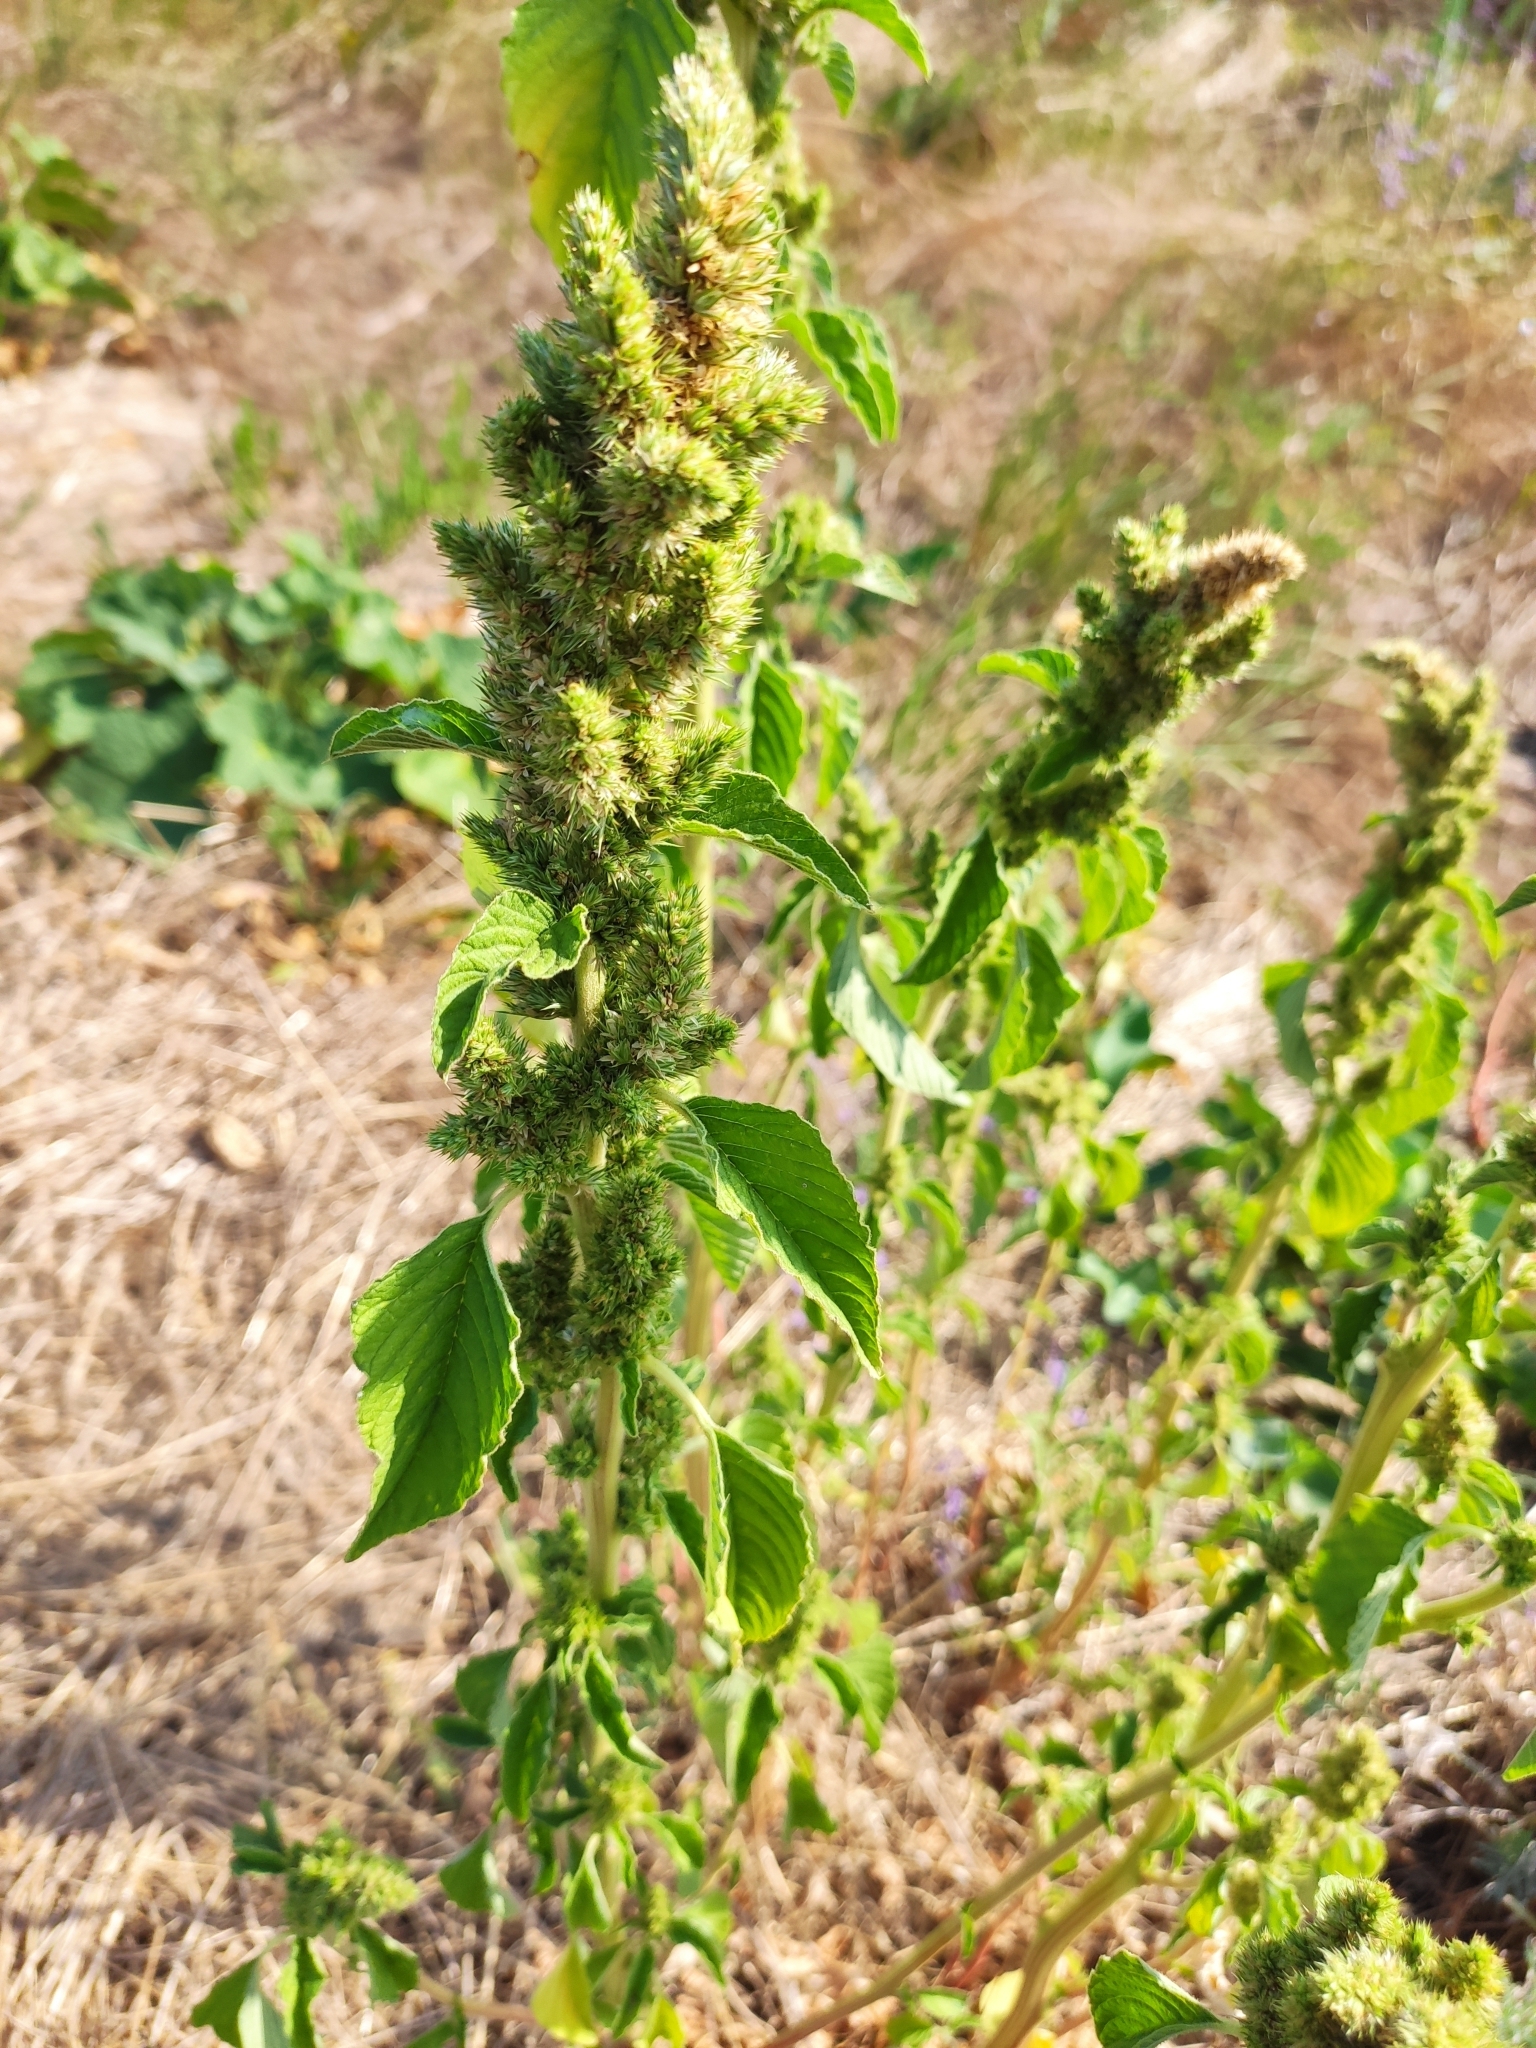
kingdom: Plantae
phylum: Tracheophyta
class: Magnoliopsida
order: Caryophyllales
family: Amaranthaceae
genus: Amaranthus
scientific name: Amaranthus retroflexus
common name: Redroot amaranth
